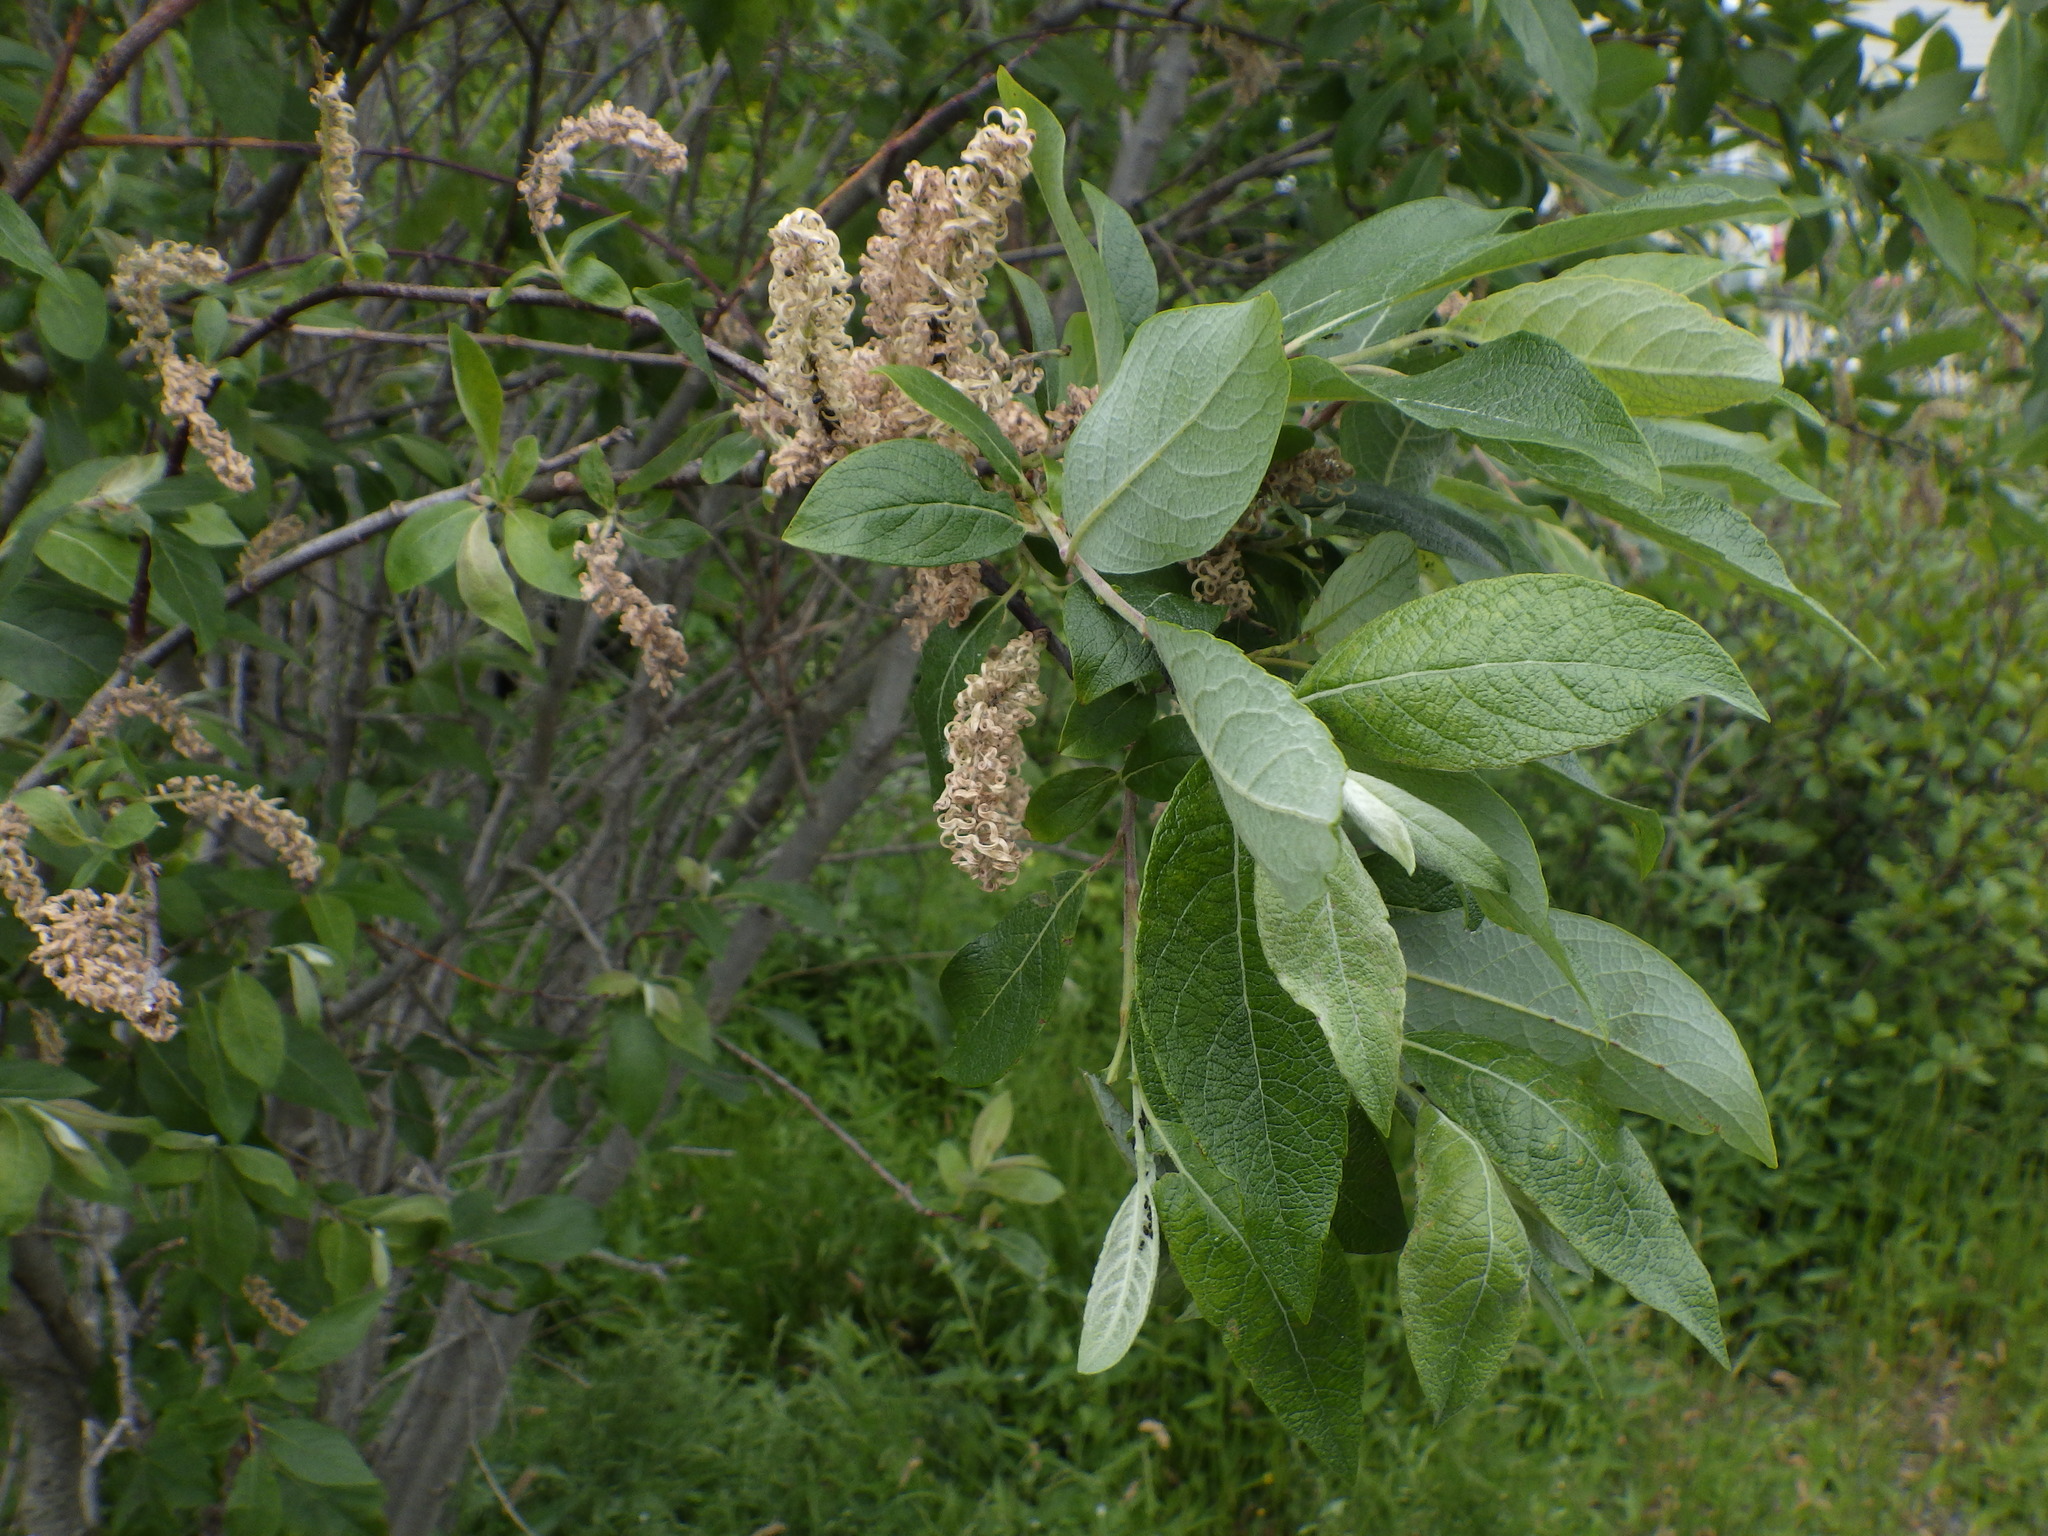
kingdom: Plantae
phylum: Tracheophyta
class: Magnoliopsida
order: Malpighiales
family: Salicaceae
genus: Salix
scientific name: Salix bebbiana
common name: Bebb's willow
